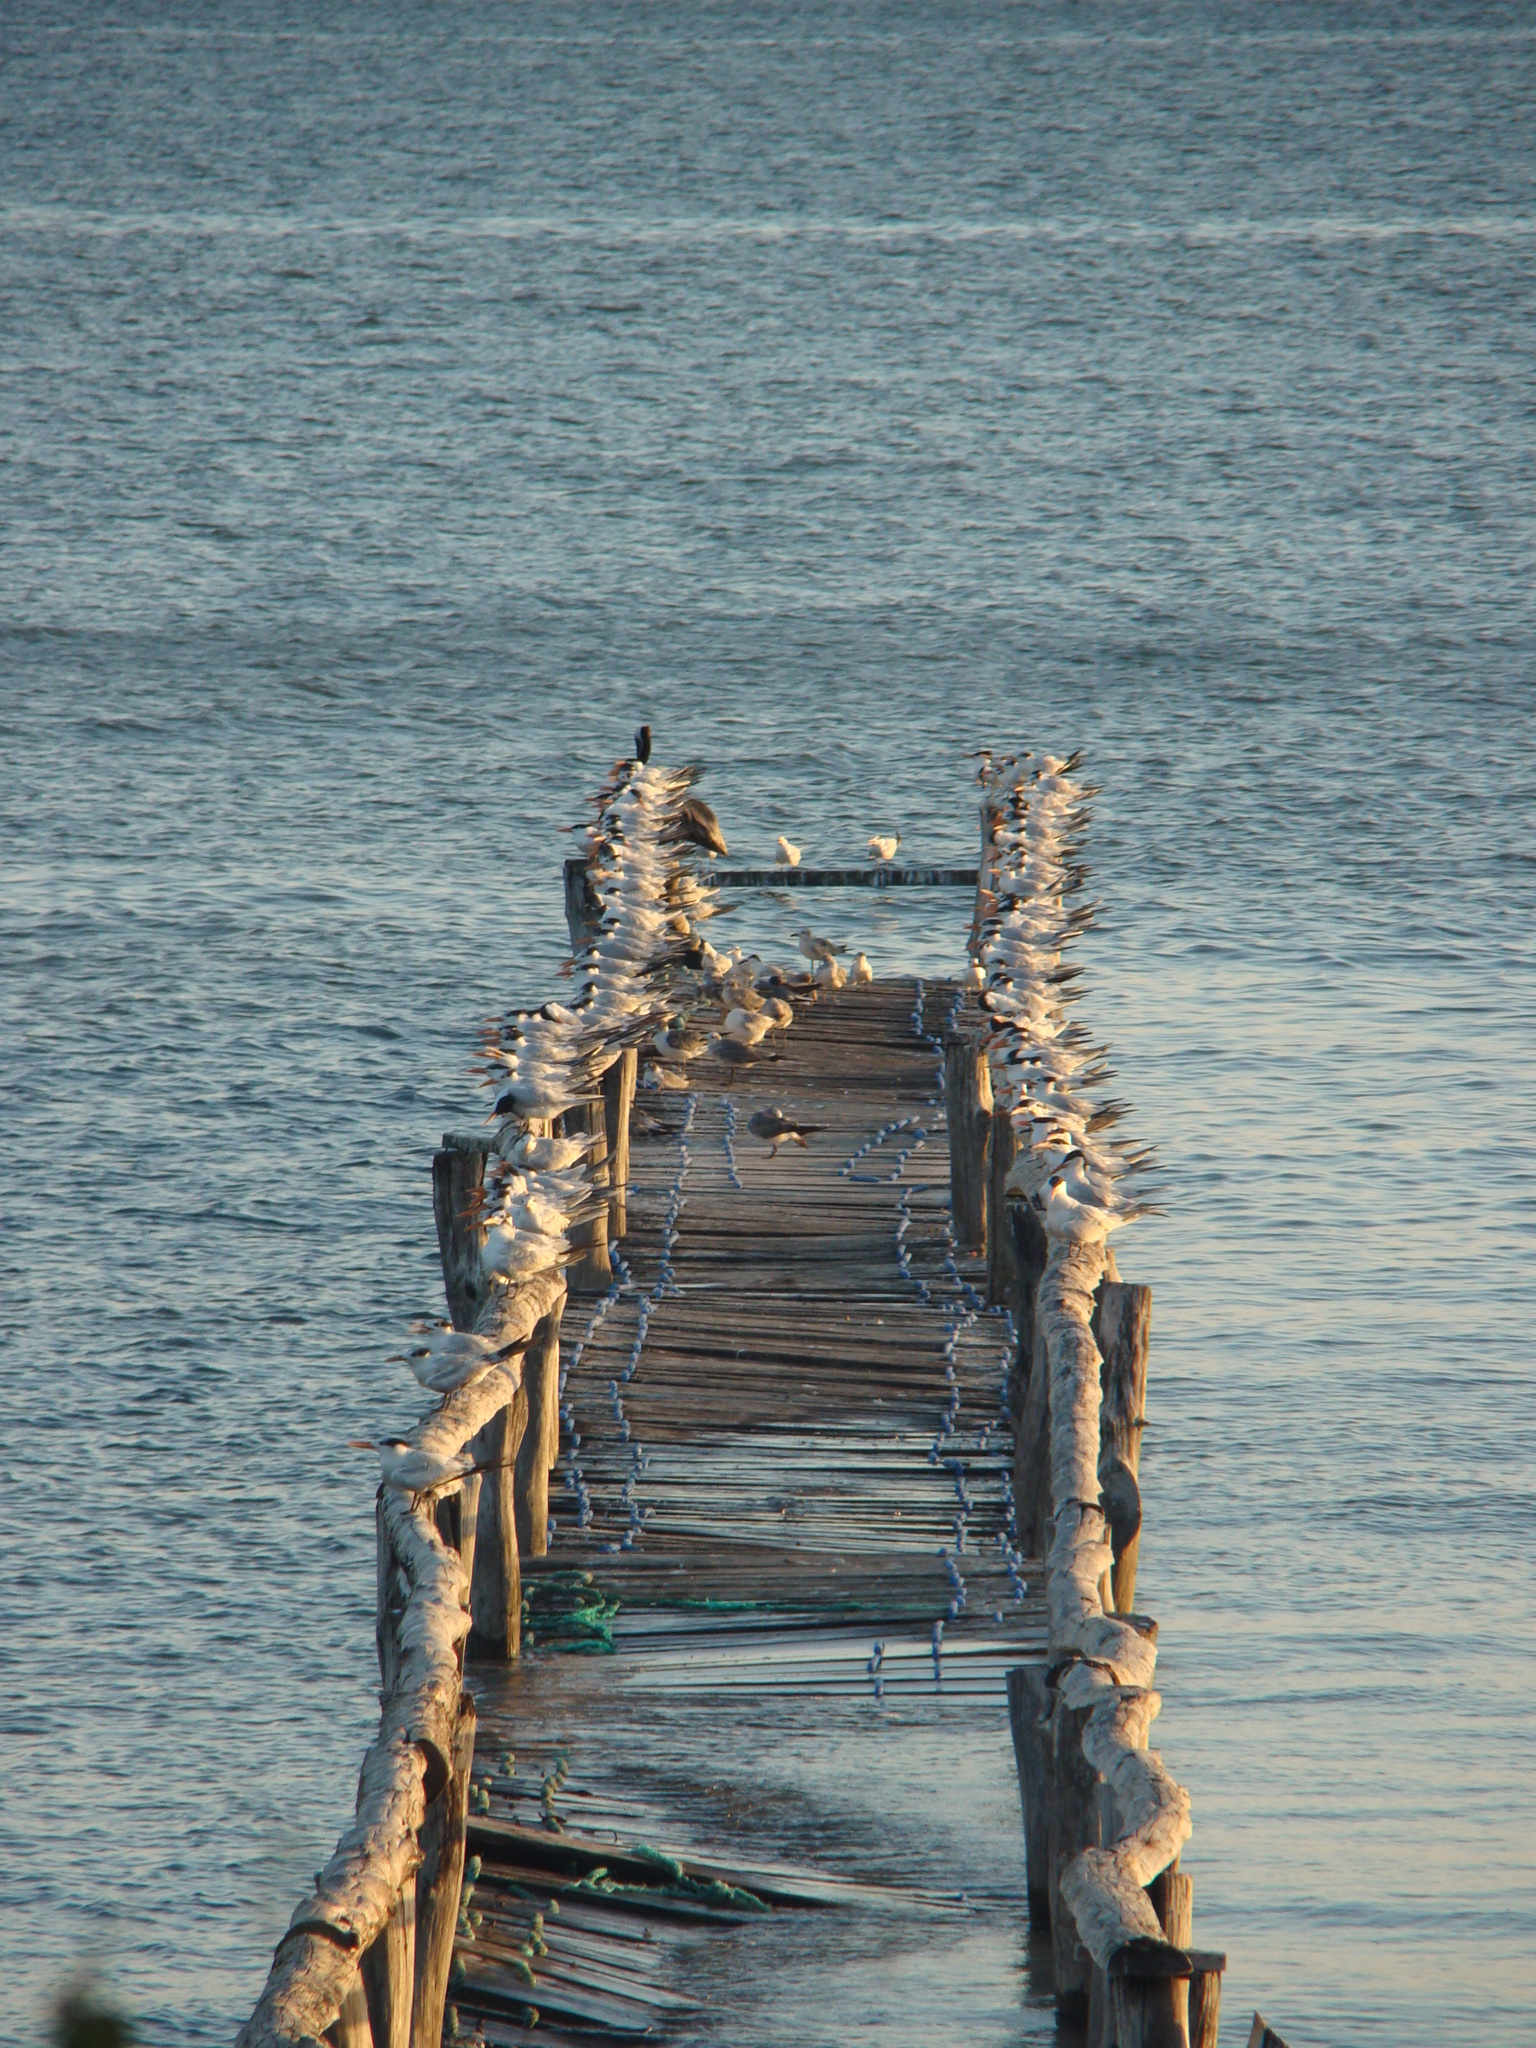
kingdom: Animalia
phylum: Chordata
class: Aves
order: Charadriiformes
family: Laridae
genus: Thalasseus
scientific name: Thalasseus maximus
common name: Royal tern
